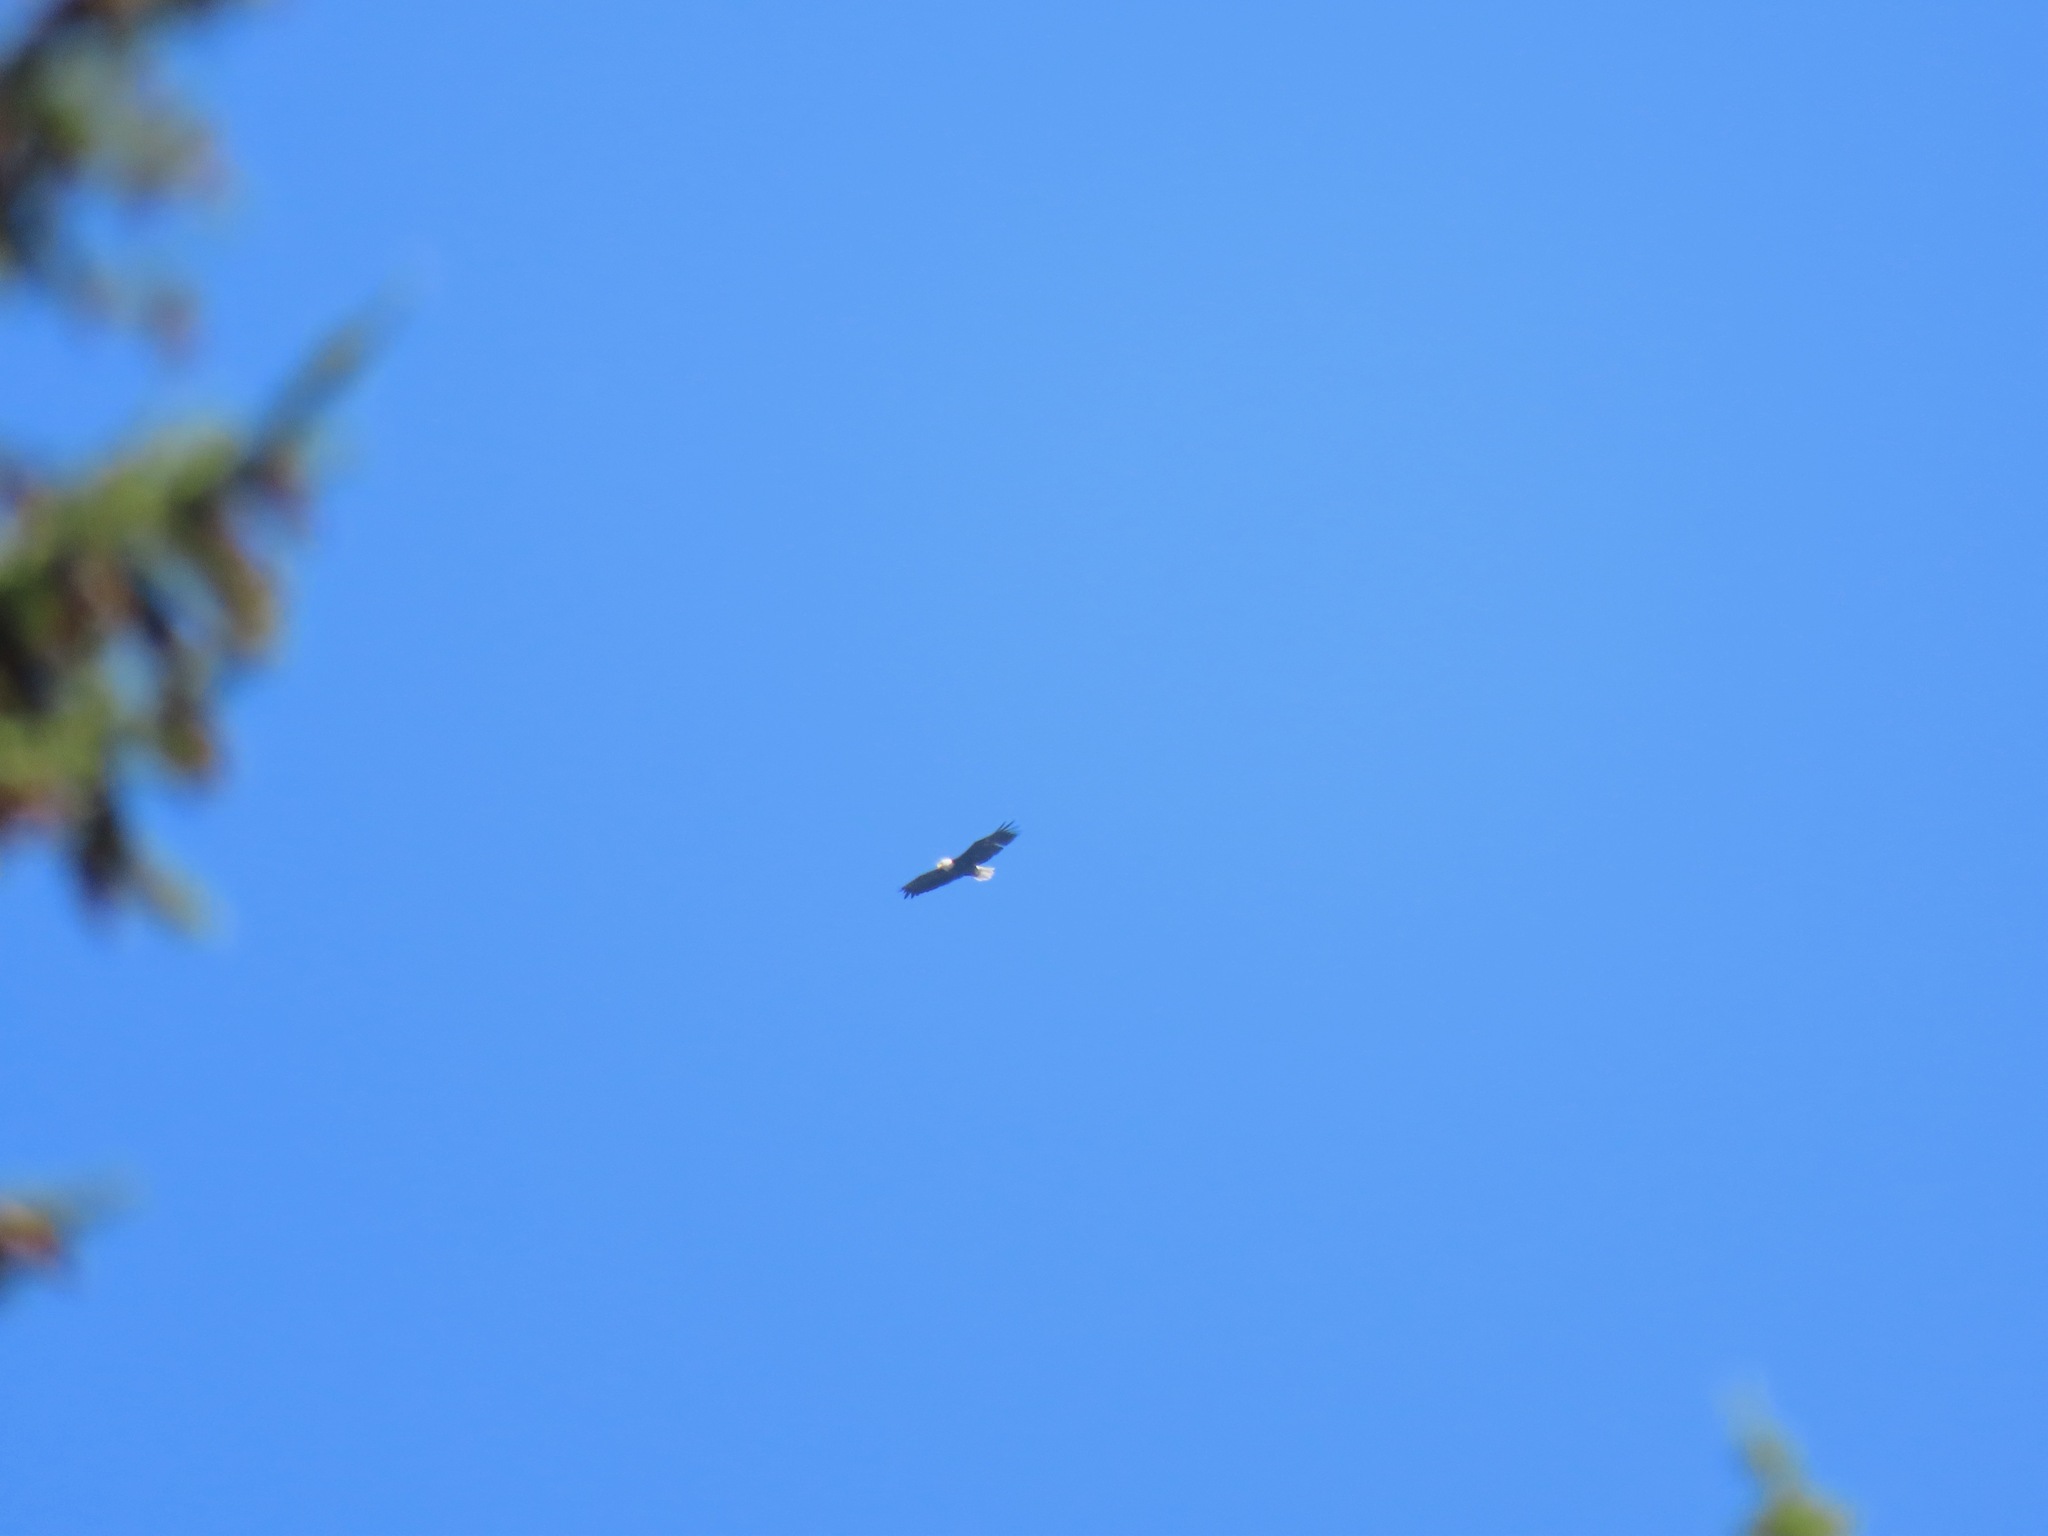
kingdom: Animalia
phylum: Chordata
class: Aves
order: Accipitriformes
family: Accipitridae
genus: Haliaeetus
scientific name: Haliaeetus leucocephalus
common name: Bald eagle
